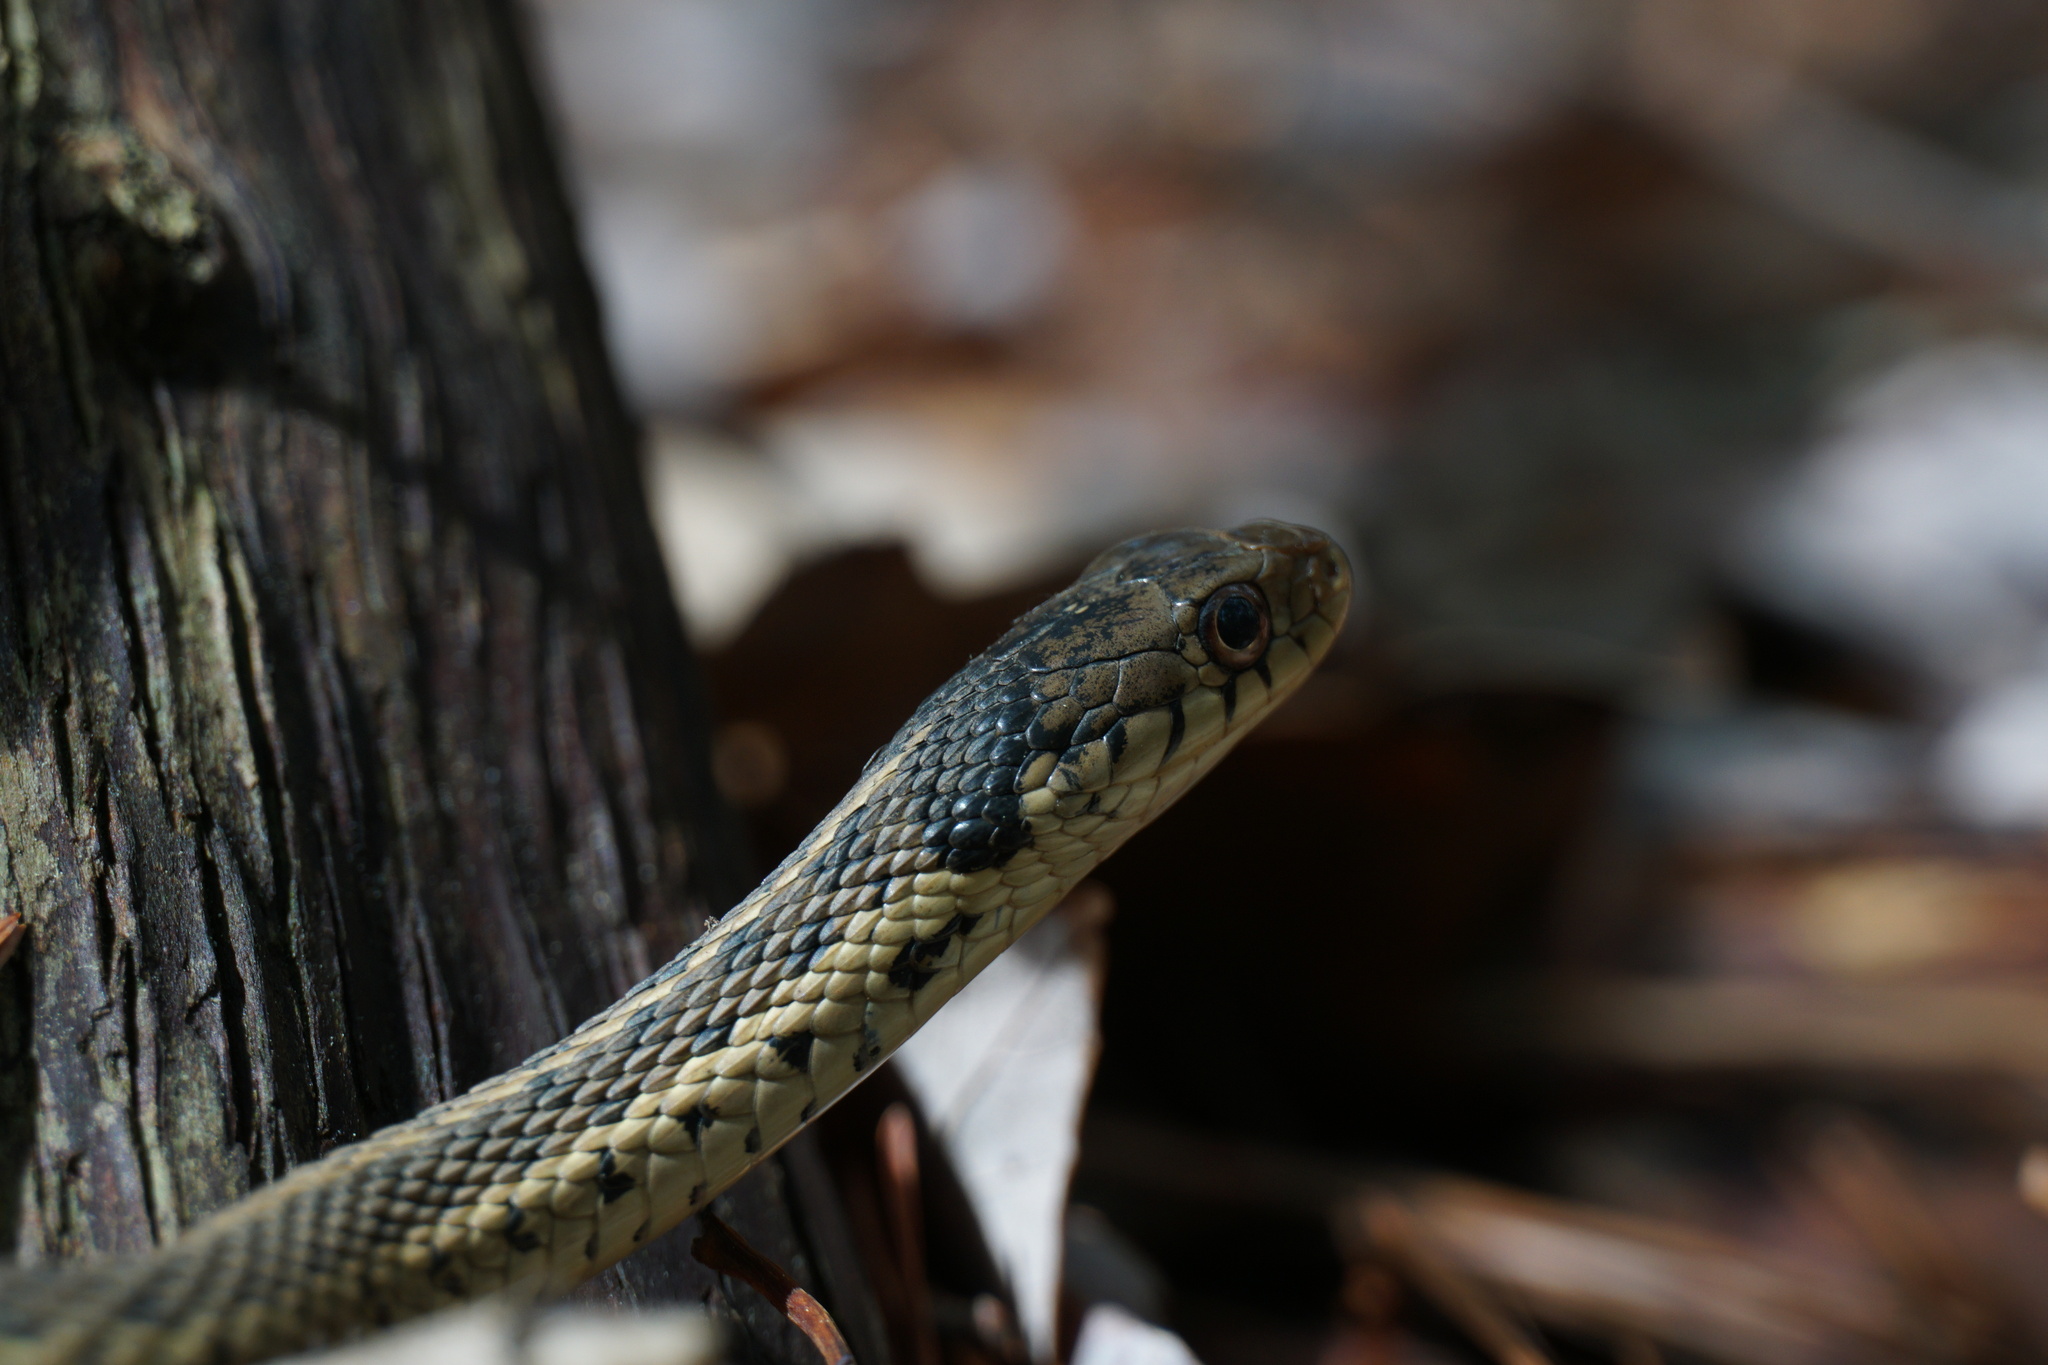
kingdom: Animalia
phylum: Chordata
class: Squamata
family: Colubridae
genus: Thamnophis
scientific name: Thamnophis sirtalis
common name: Common garter snake
